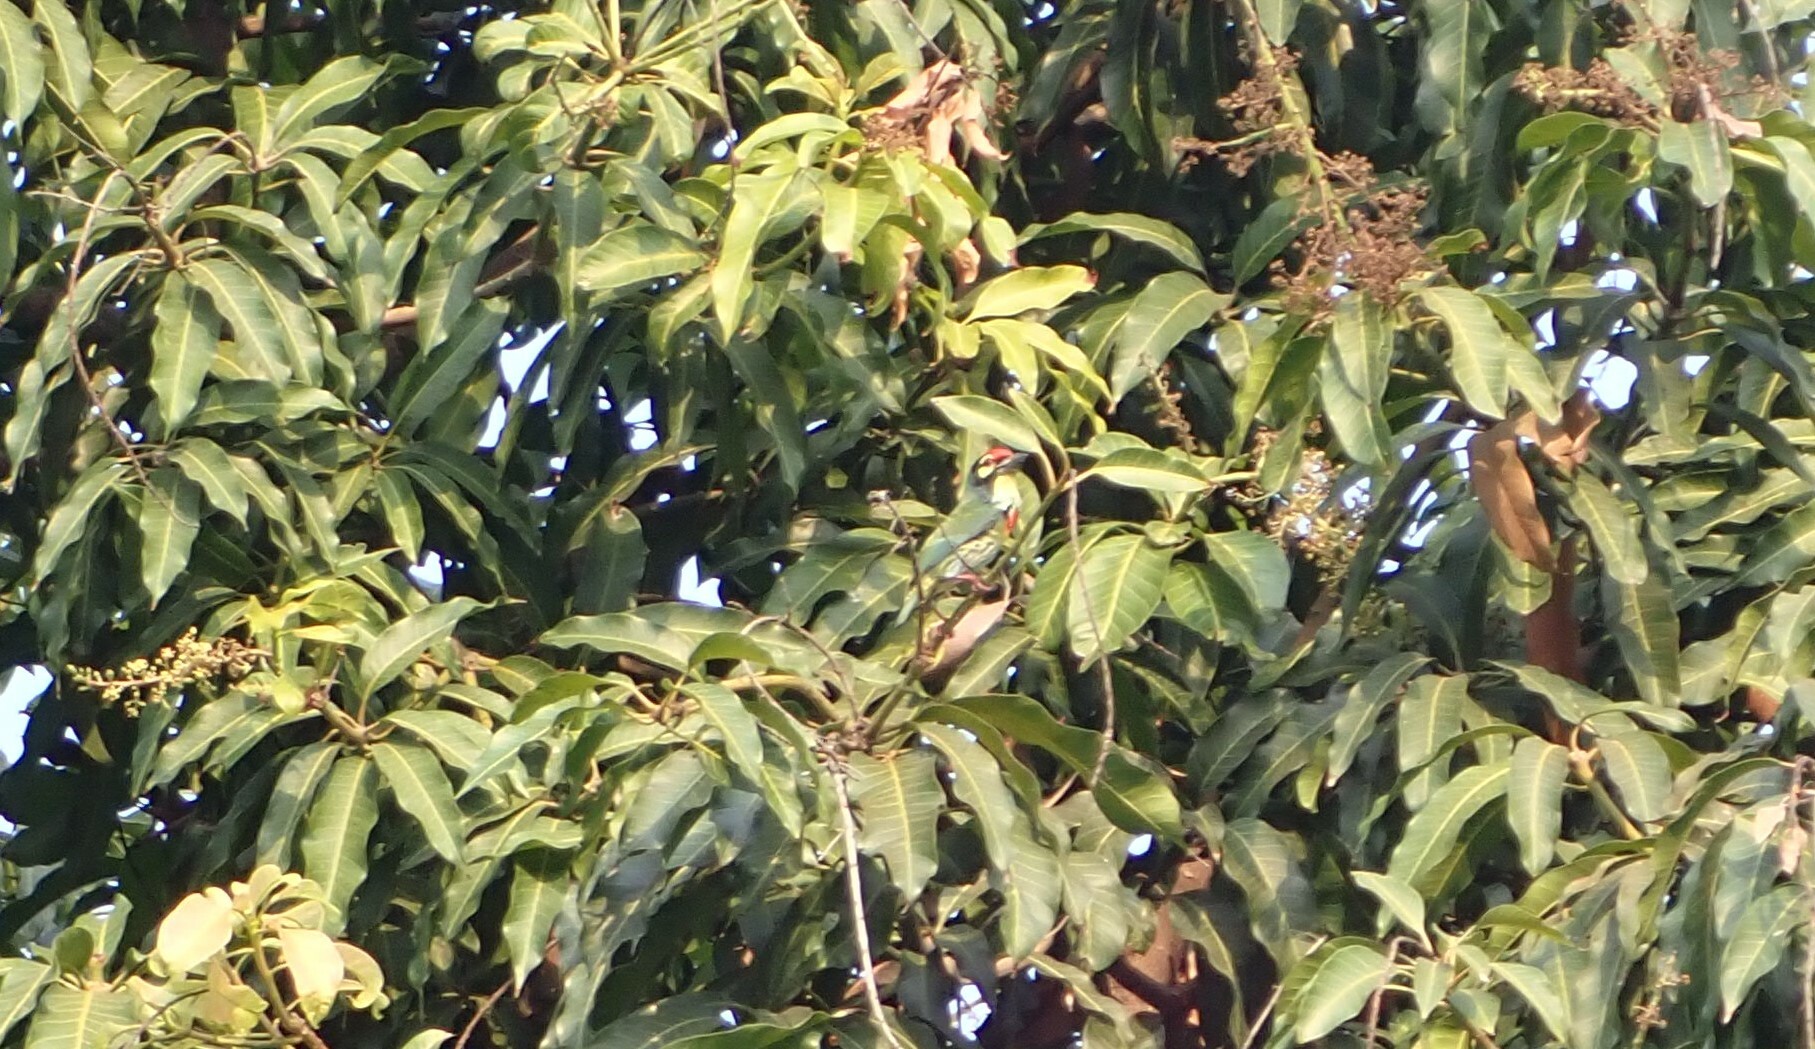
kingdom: Animalia
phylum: Chordata
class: Aves
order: Piciformes
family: Megalaimidae
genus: Psilopogon
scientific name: Psilopogon haemacephalus
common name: Coppersmith barbet
